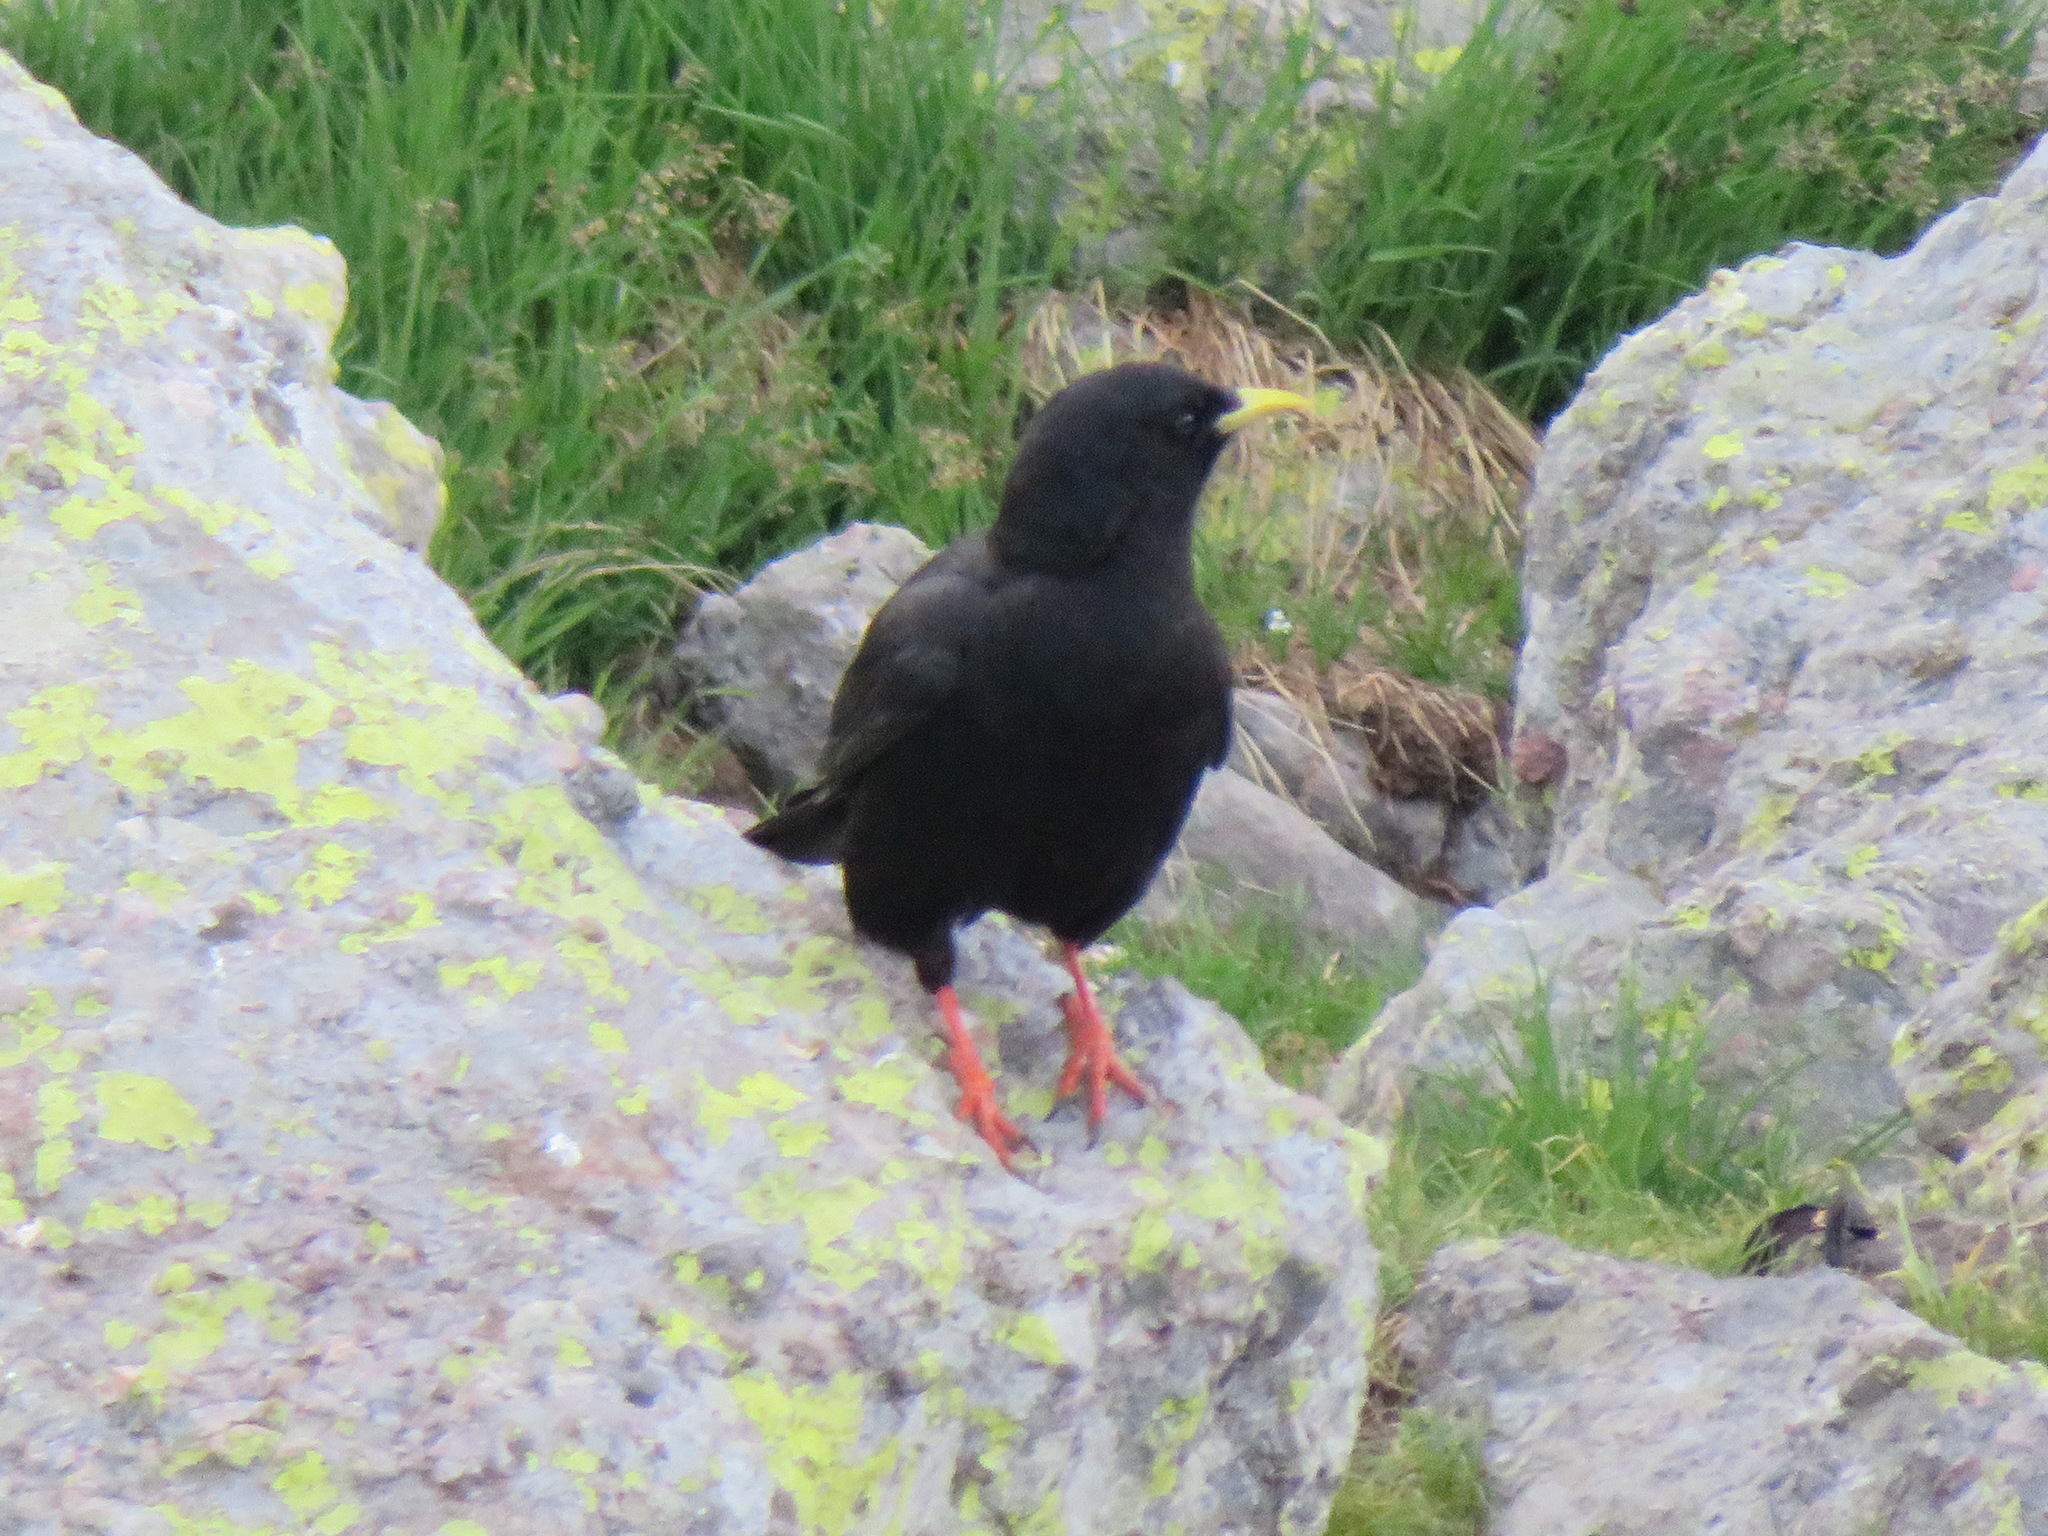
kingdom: Animalia
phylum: Chordata
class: Aves
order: Passeriformes
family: Corvidae
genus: Pyrrhocorax
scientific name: Pyrrhocorax graculus
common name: Alpine chough
